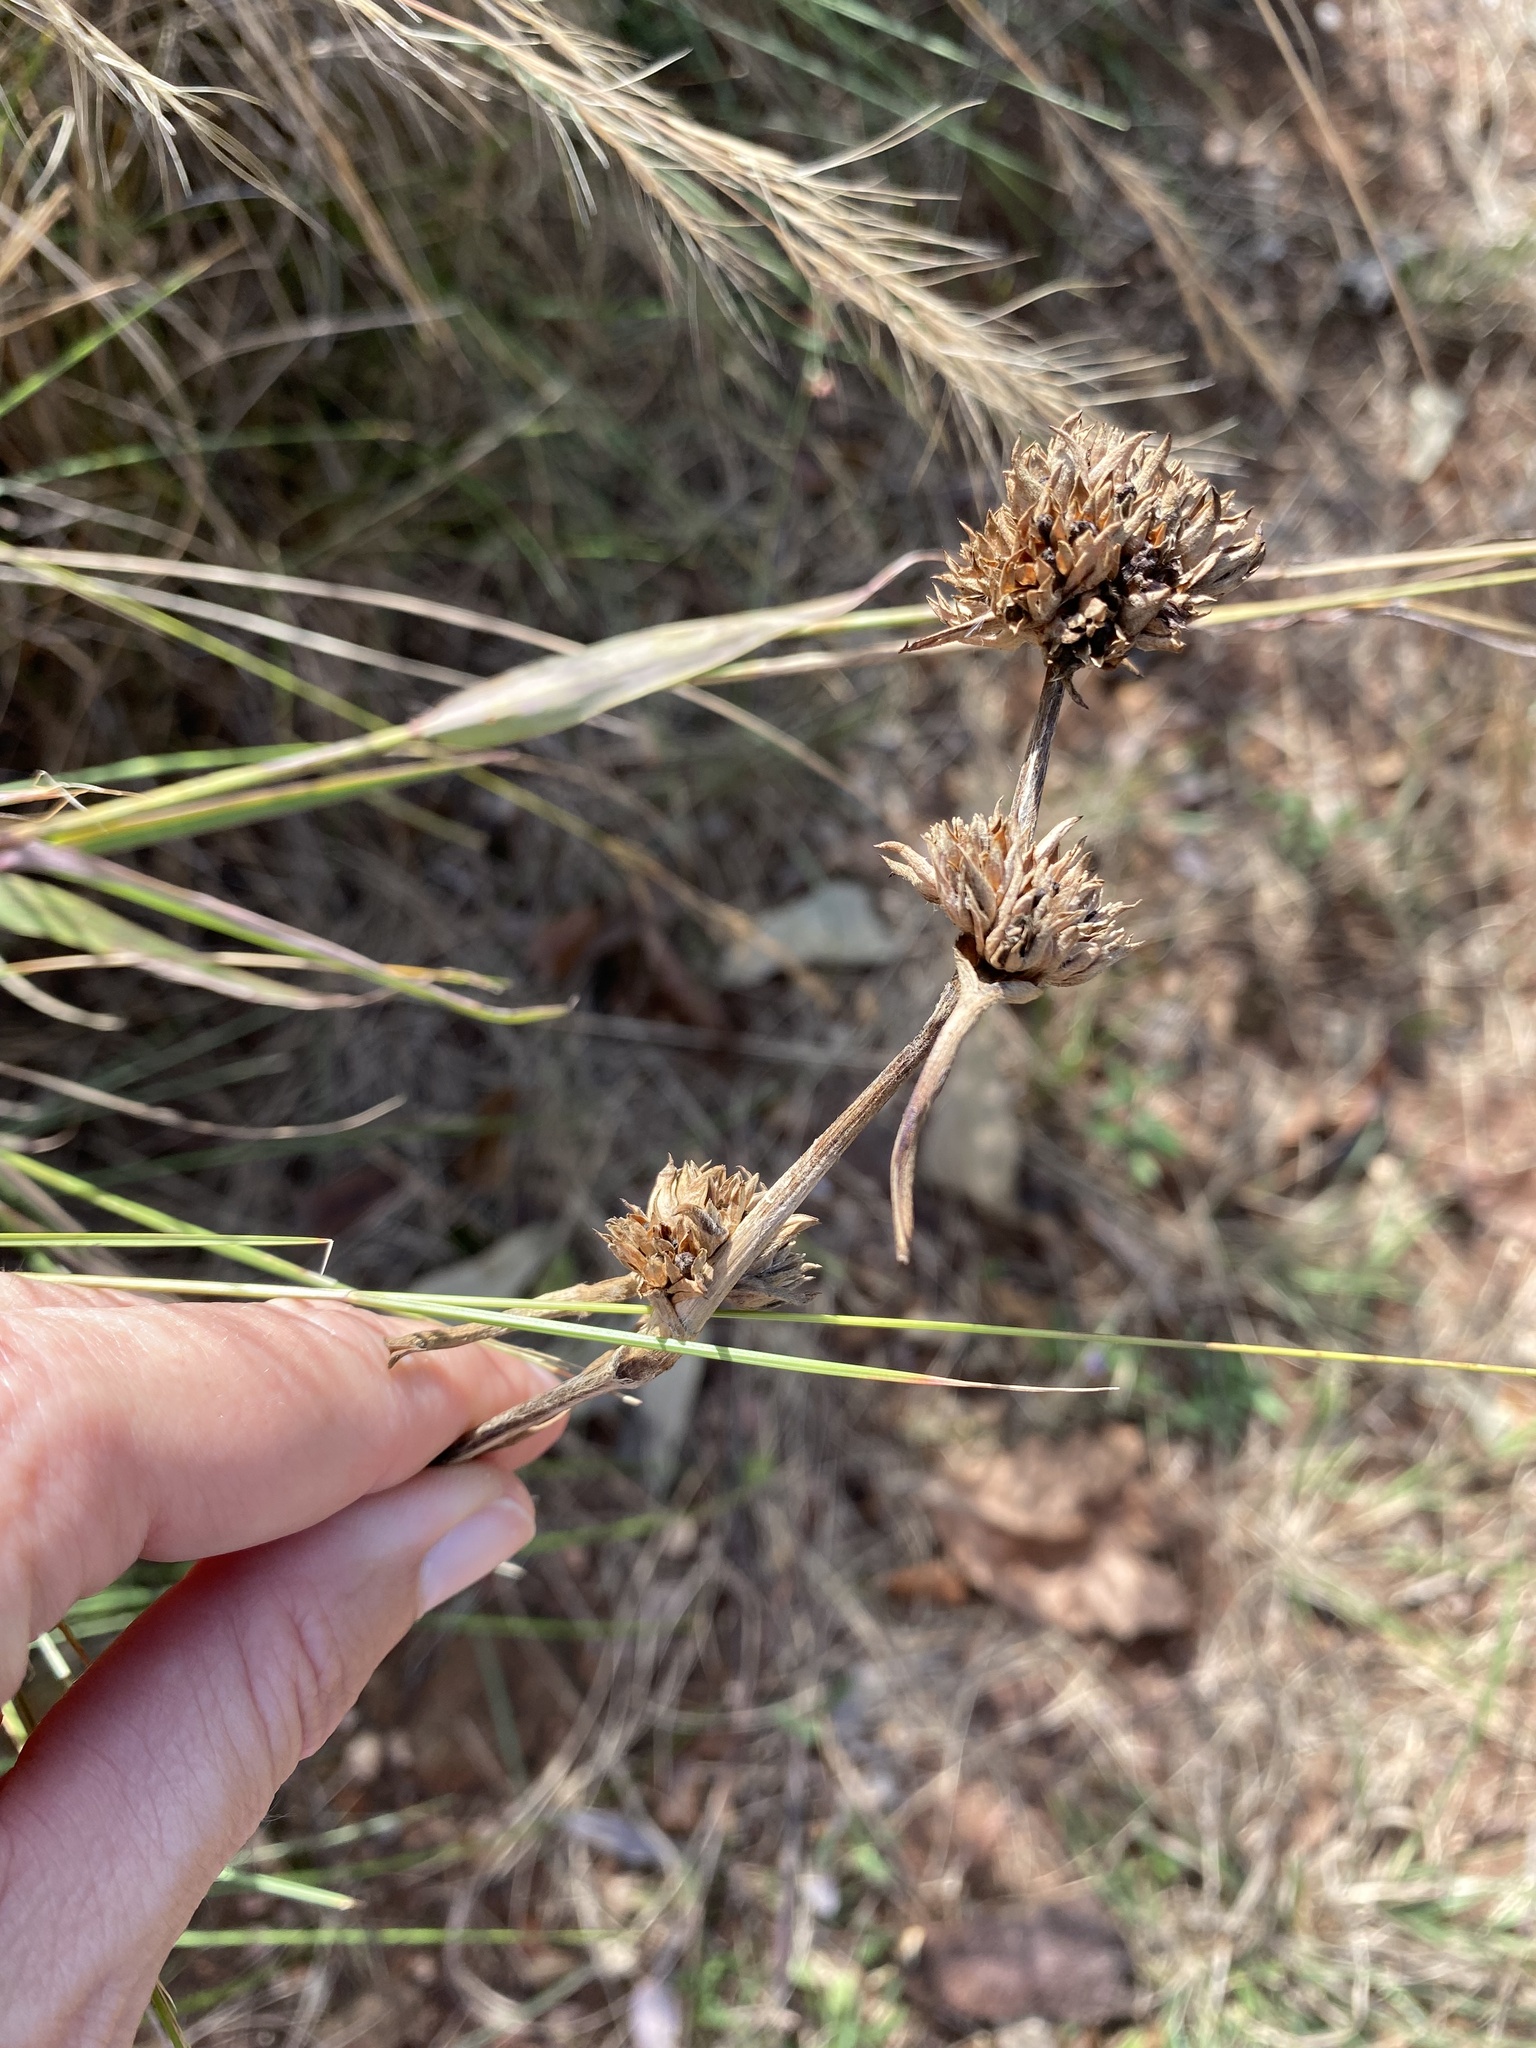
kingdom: Plantae
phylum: Tracheophyta
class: Liliopsida
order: Commelinales
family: Commelinaceae
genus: Cyanotis
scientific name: Cyanotis speciosa
